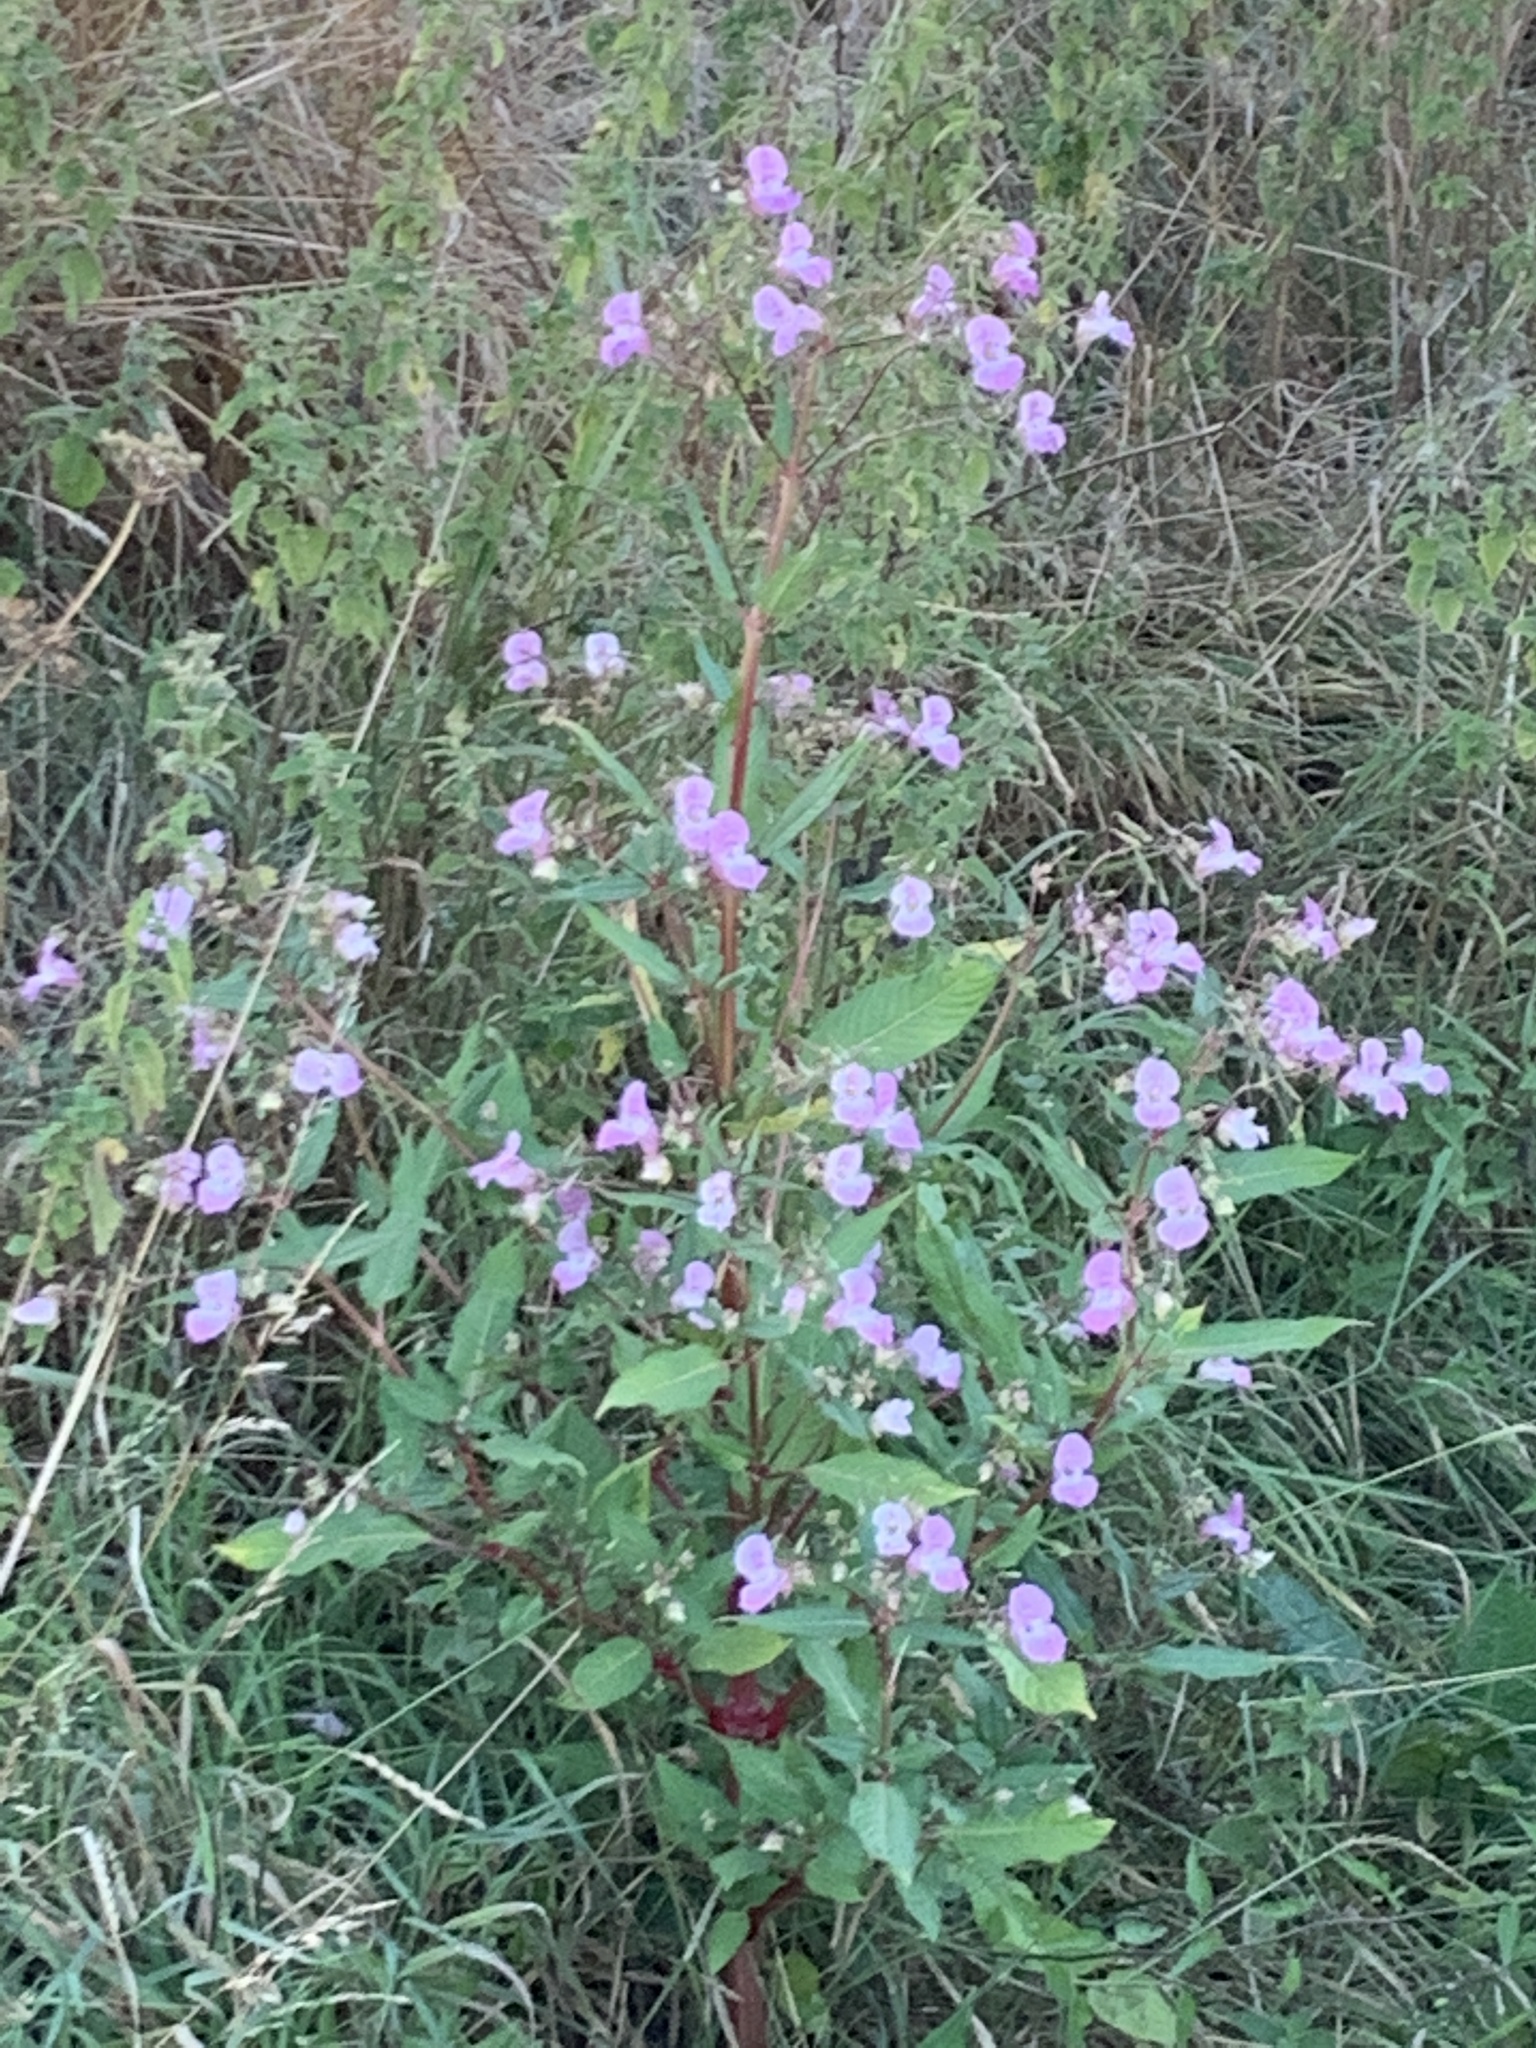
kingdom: Plantae
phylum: Tracheophyta
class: Magnoliopsida
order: Ericales
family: Balsaminaceae
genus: Impatiens
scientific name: Impatiens glandulifera
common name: Himalayan balsam
